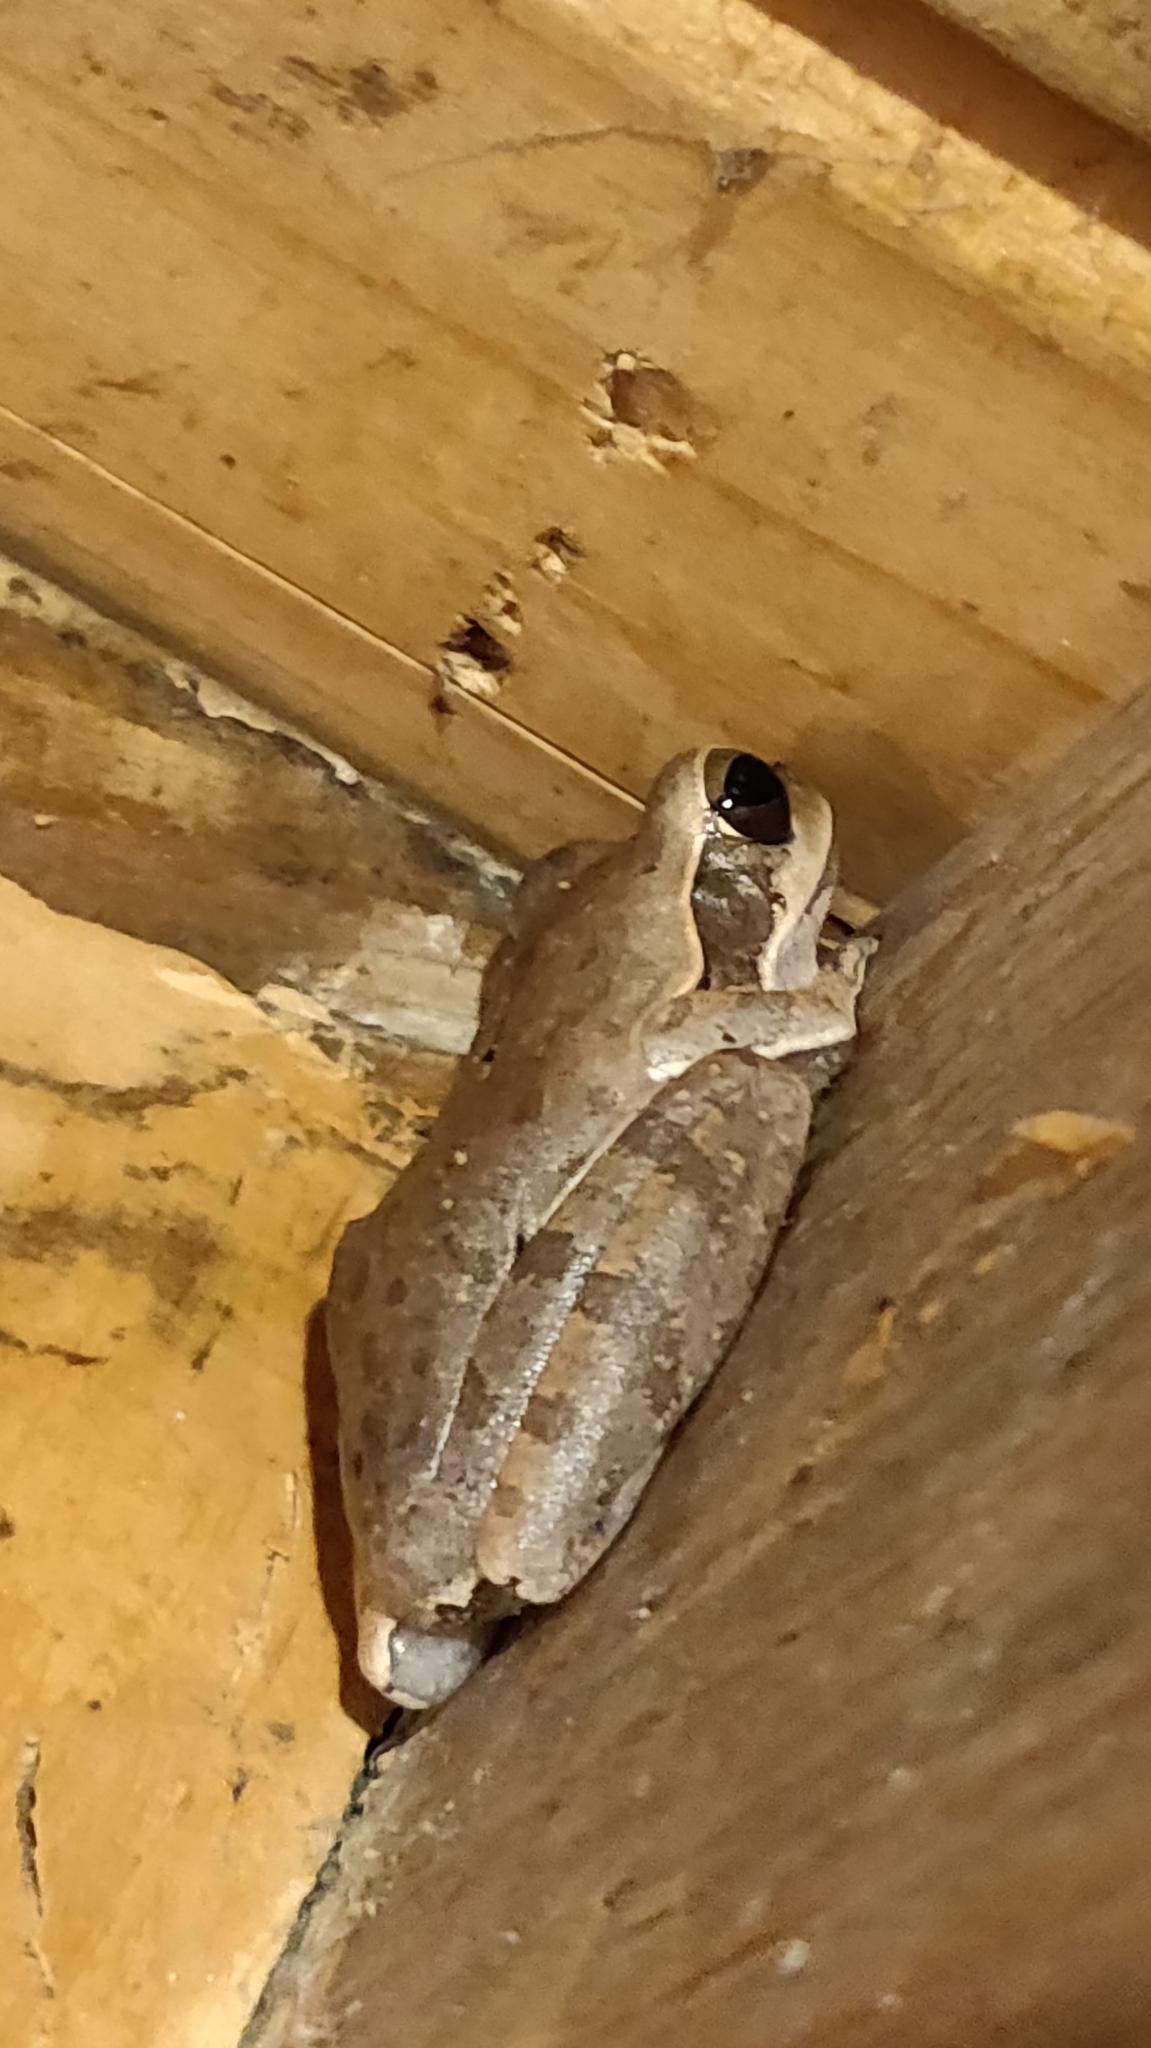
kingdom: Animalia
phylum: Chordata
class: Amphibia
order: Anura
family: Rhacophoridae
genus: Polypedates
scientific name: Polypedates maculatus
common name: Himalayan tree frog
